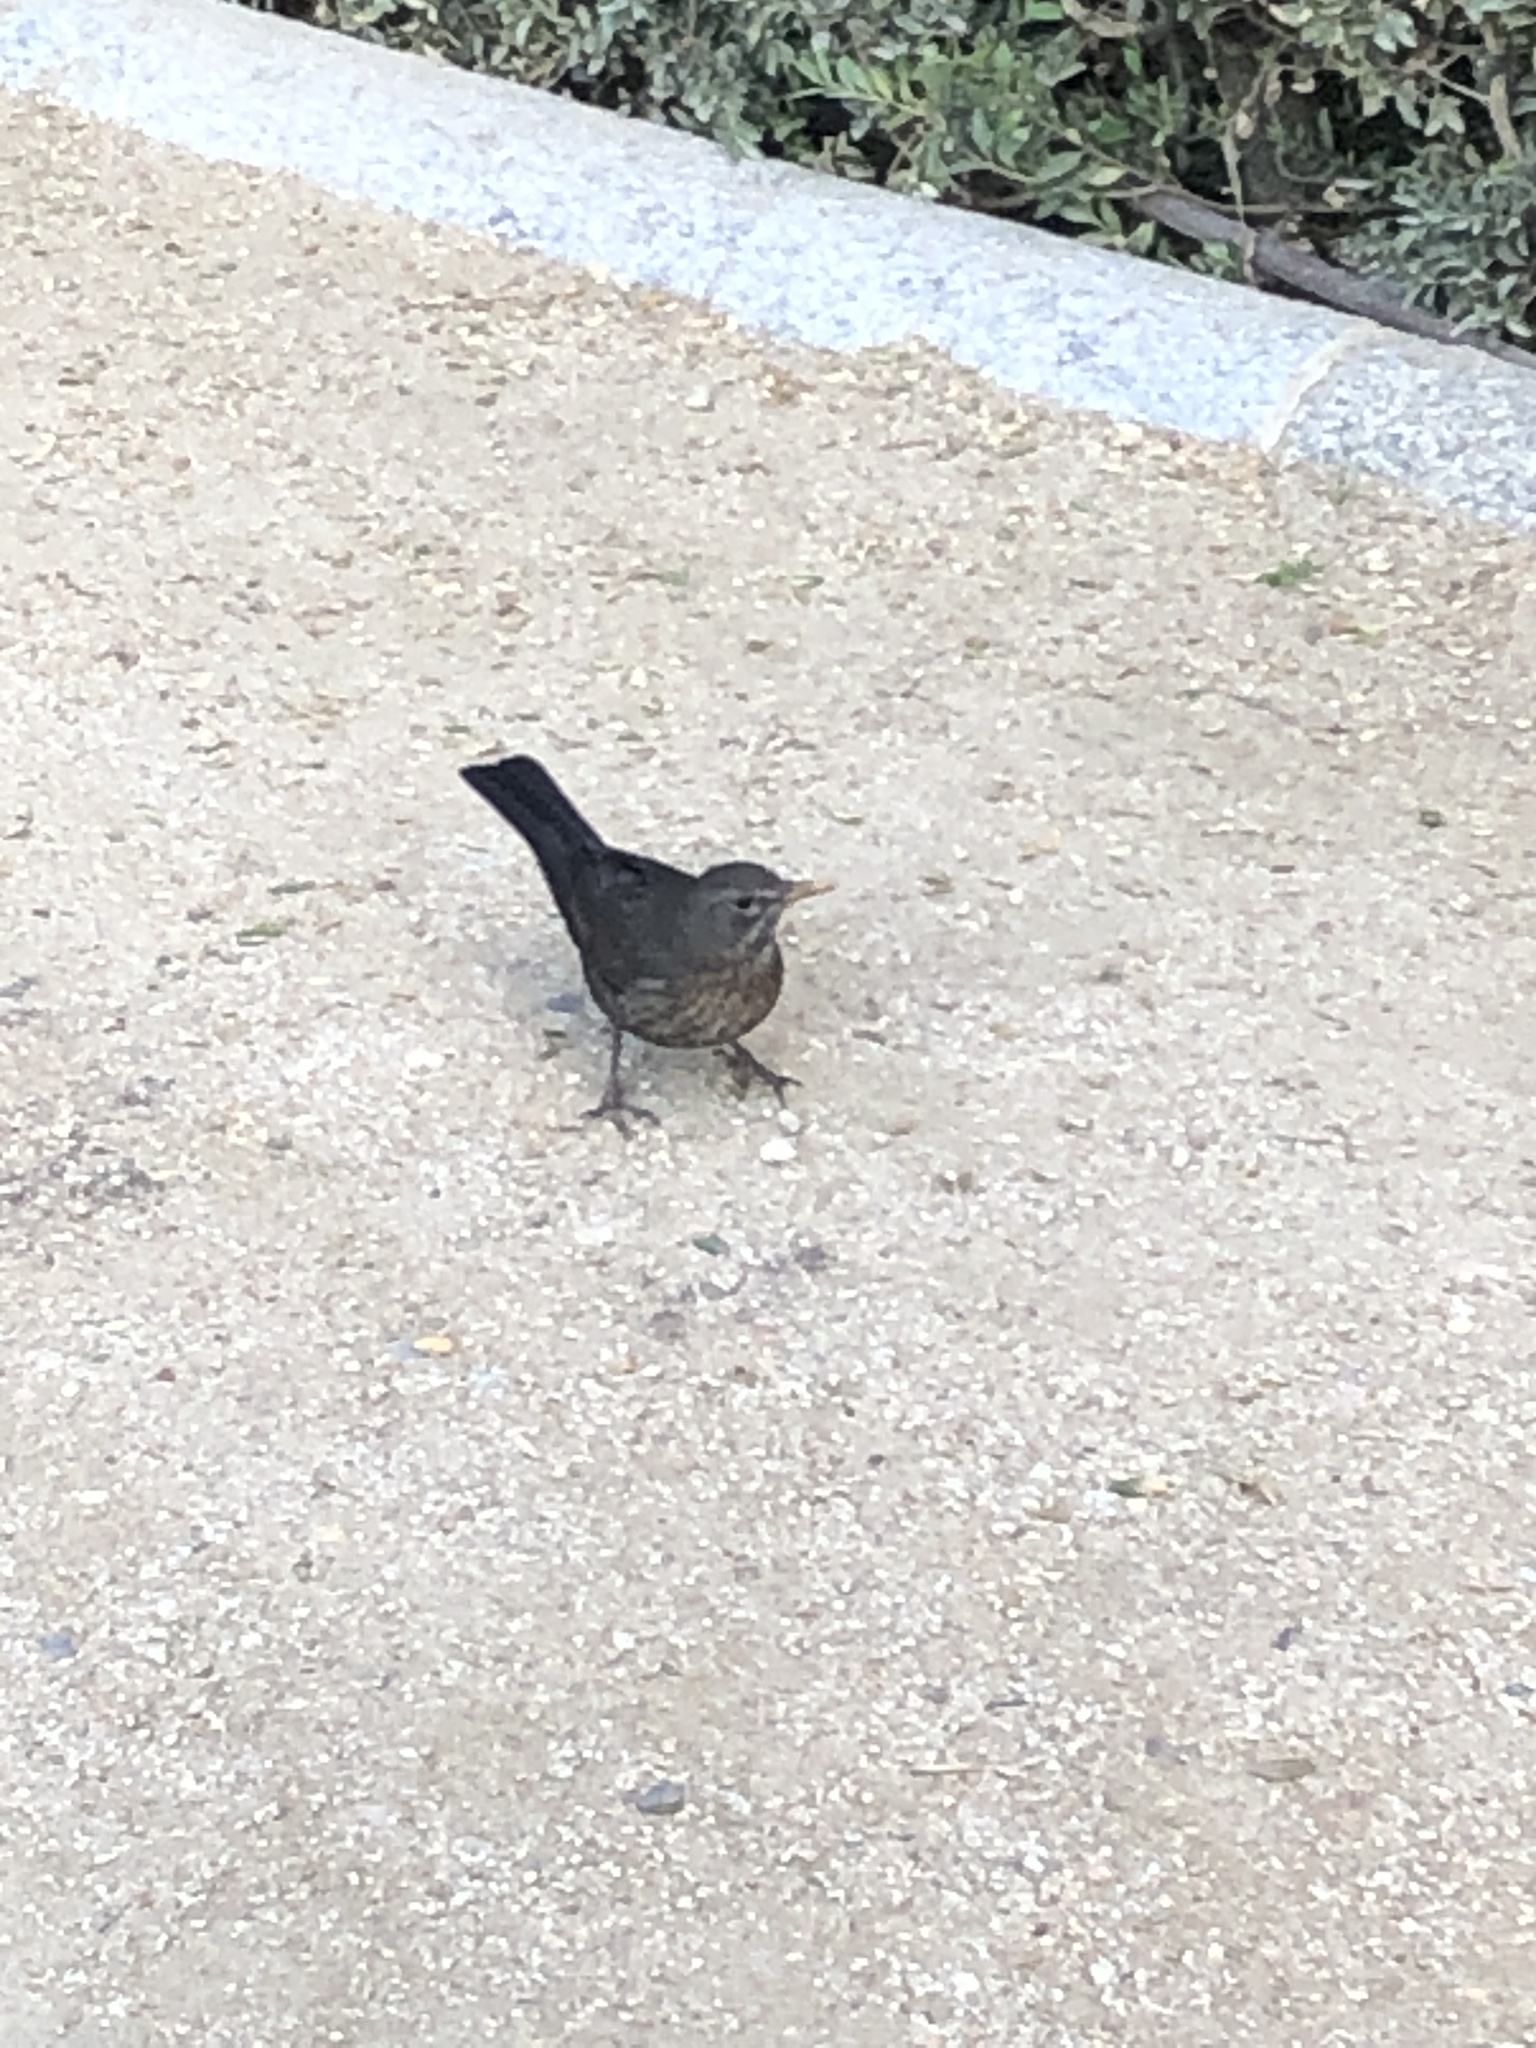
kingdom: Animalia
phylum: Chordata
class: Aves
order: Passeriformes
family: Turdidae
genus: Turdus
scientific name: Turdus merula
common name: Common blackbird
